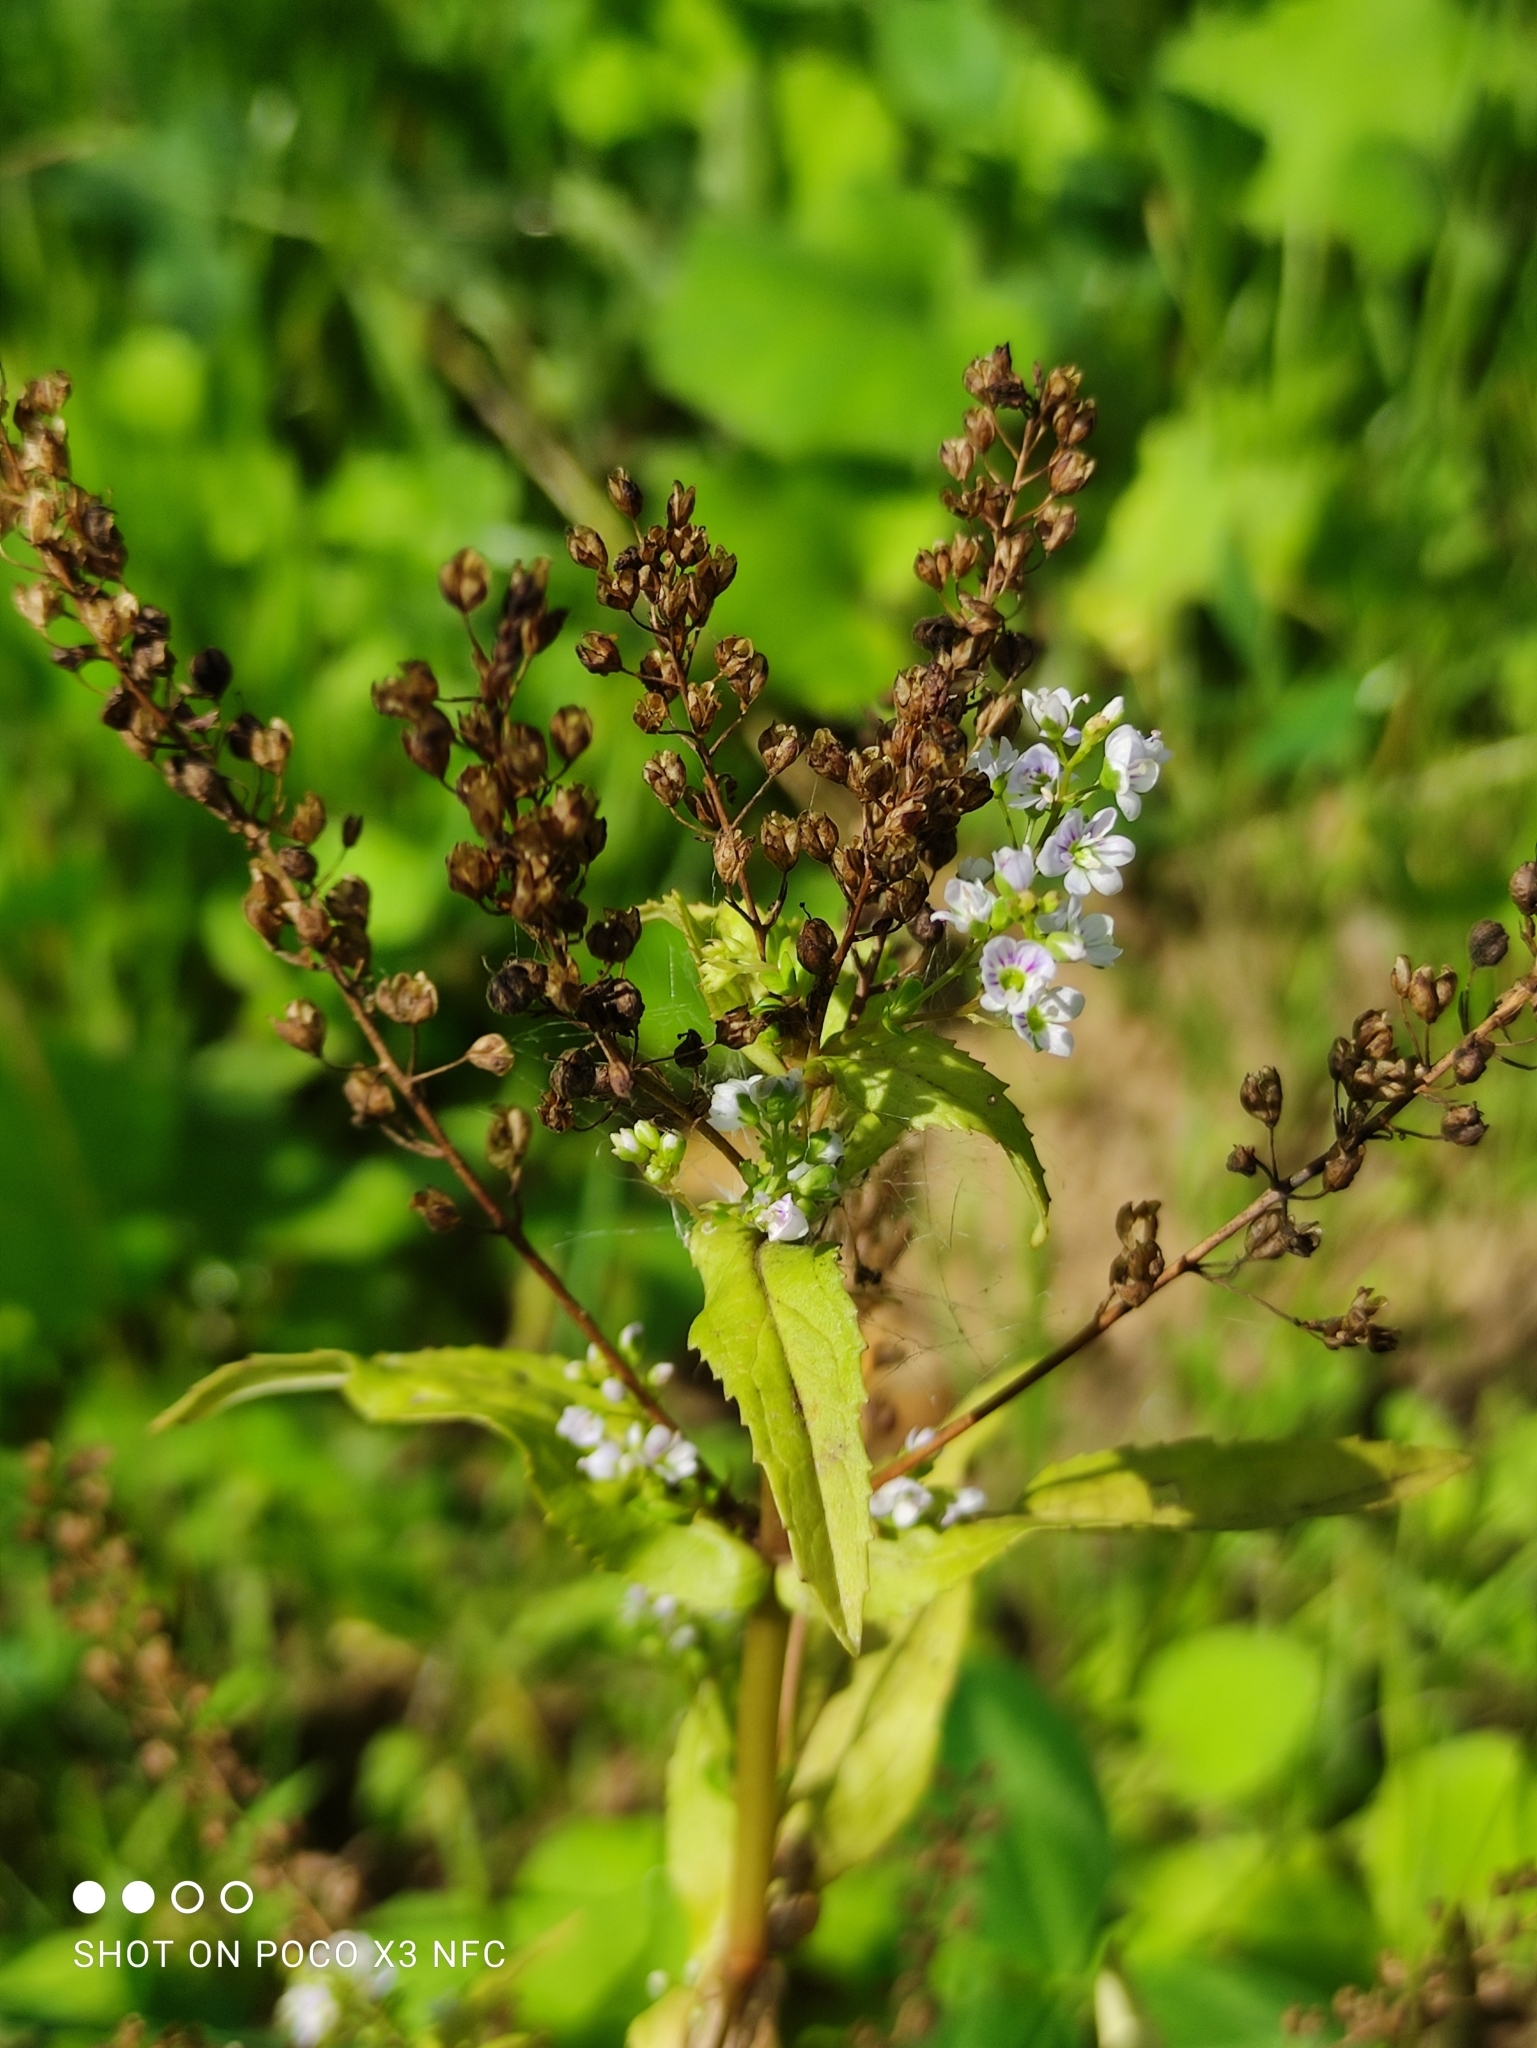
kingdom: Plantae
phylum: Tracheophyta
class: Magnoliopsida
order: Lamiales
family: Plantaginaceae
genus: Veronica
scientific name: Veronica anagallis-aquatica
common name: Water speedwell
